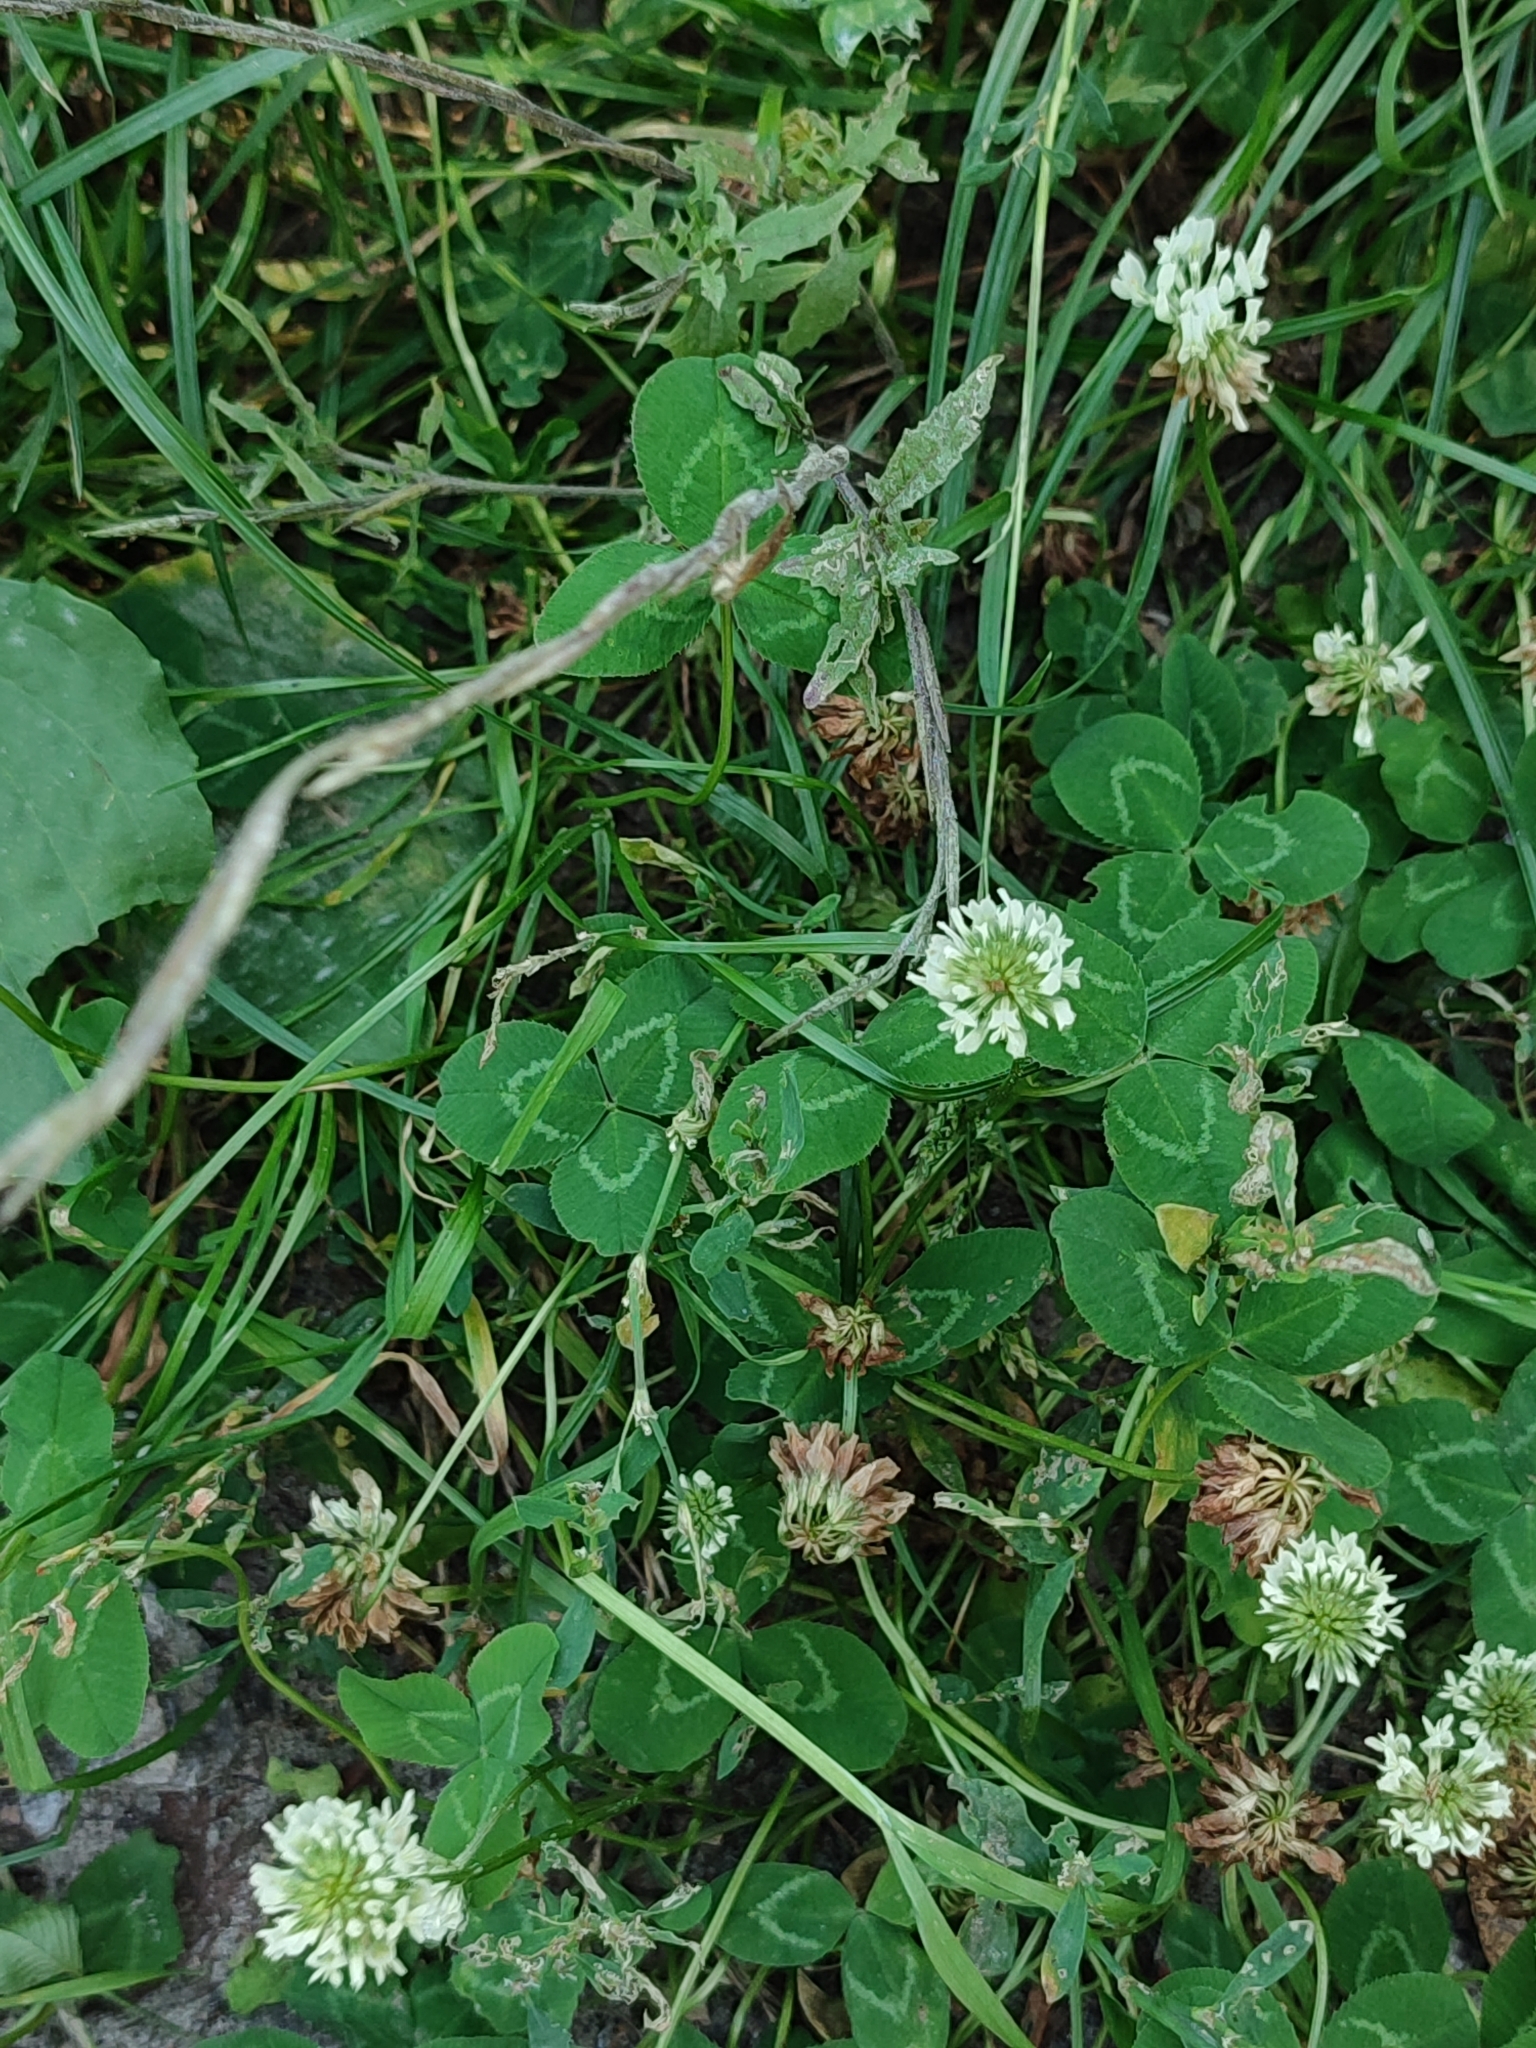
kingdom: Plantae
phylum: Tracheophyta
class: Magnoliopsida
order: Fabales
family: Fabaceae
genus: Trifolium
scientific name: Trifolium repens
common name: White clover
